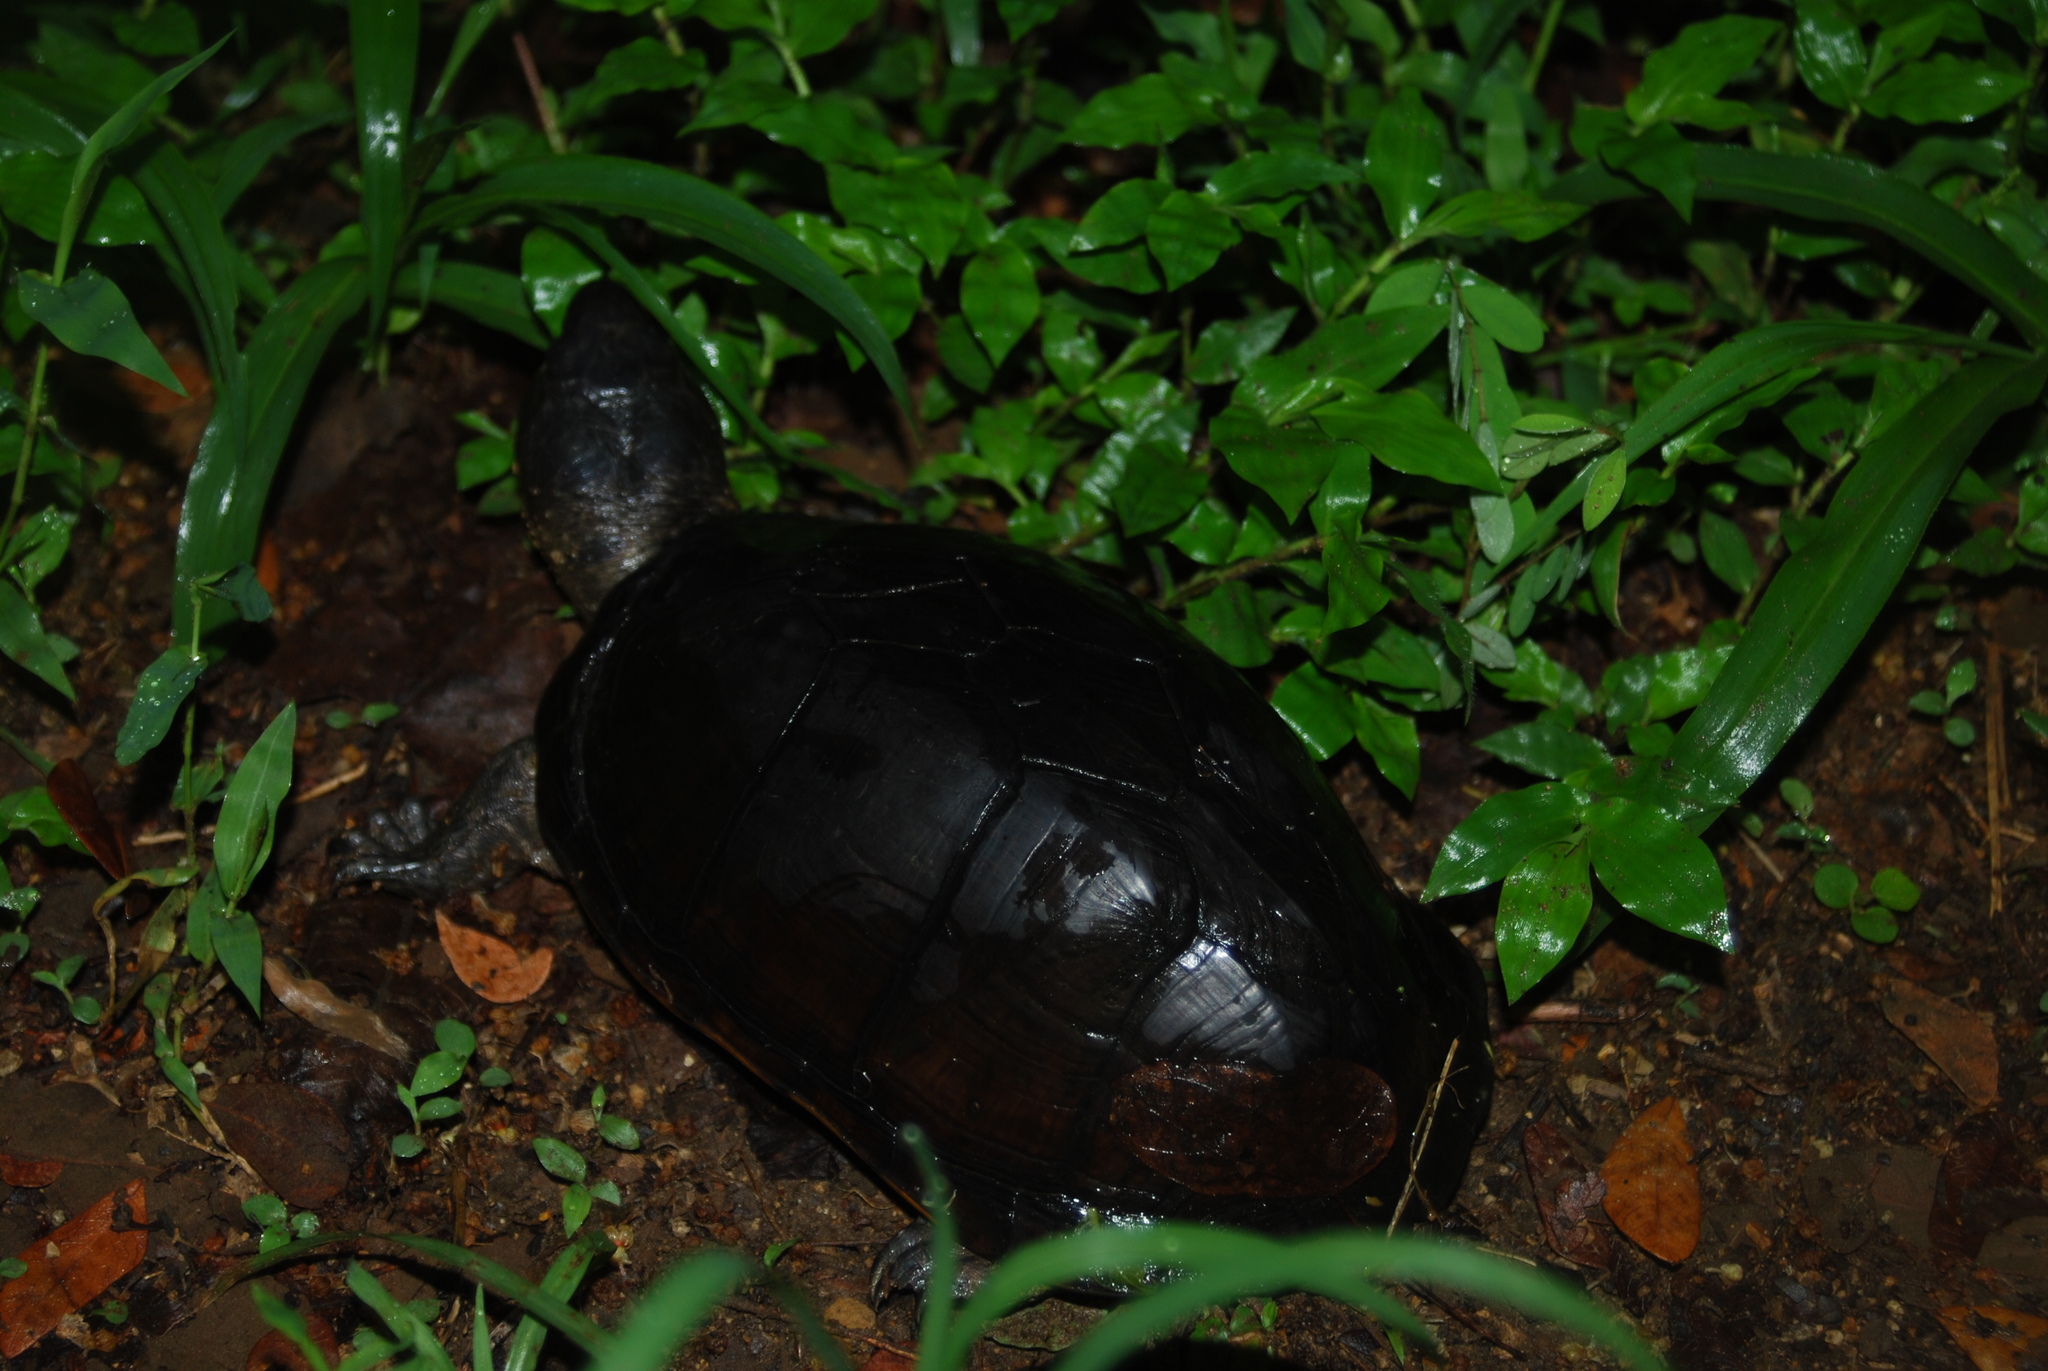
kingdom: Animalia
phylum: Chordata
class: Testudines
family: Kinosternidae
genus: Kinosternon
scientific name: Kinosternon scorpioides
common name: Scorpion mud turtle
